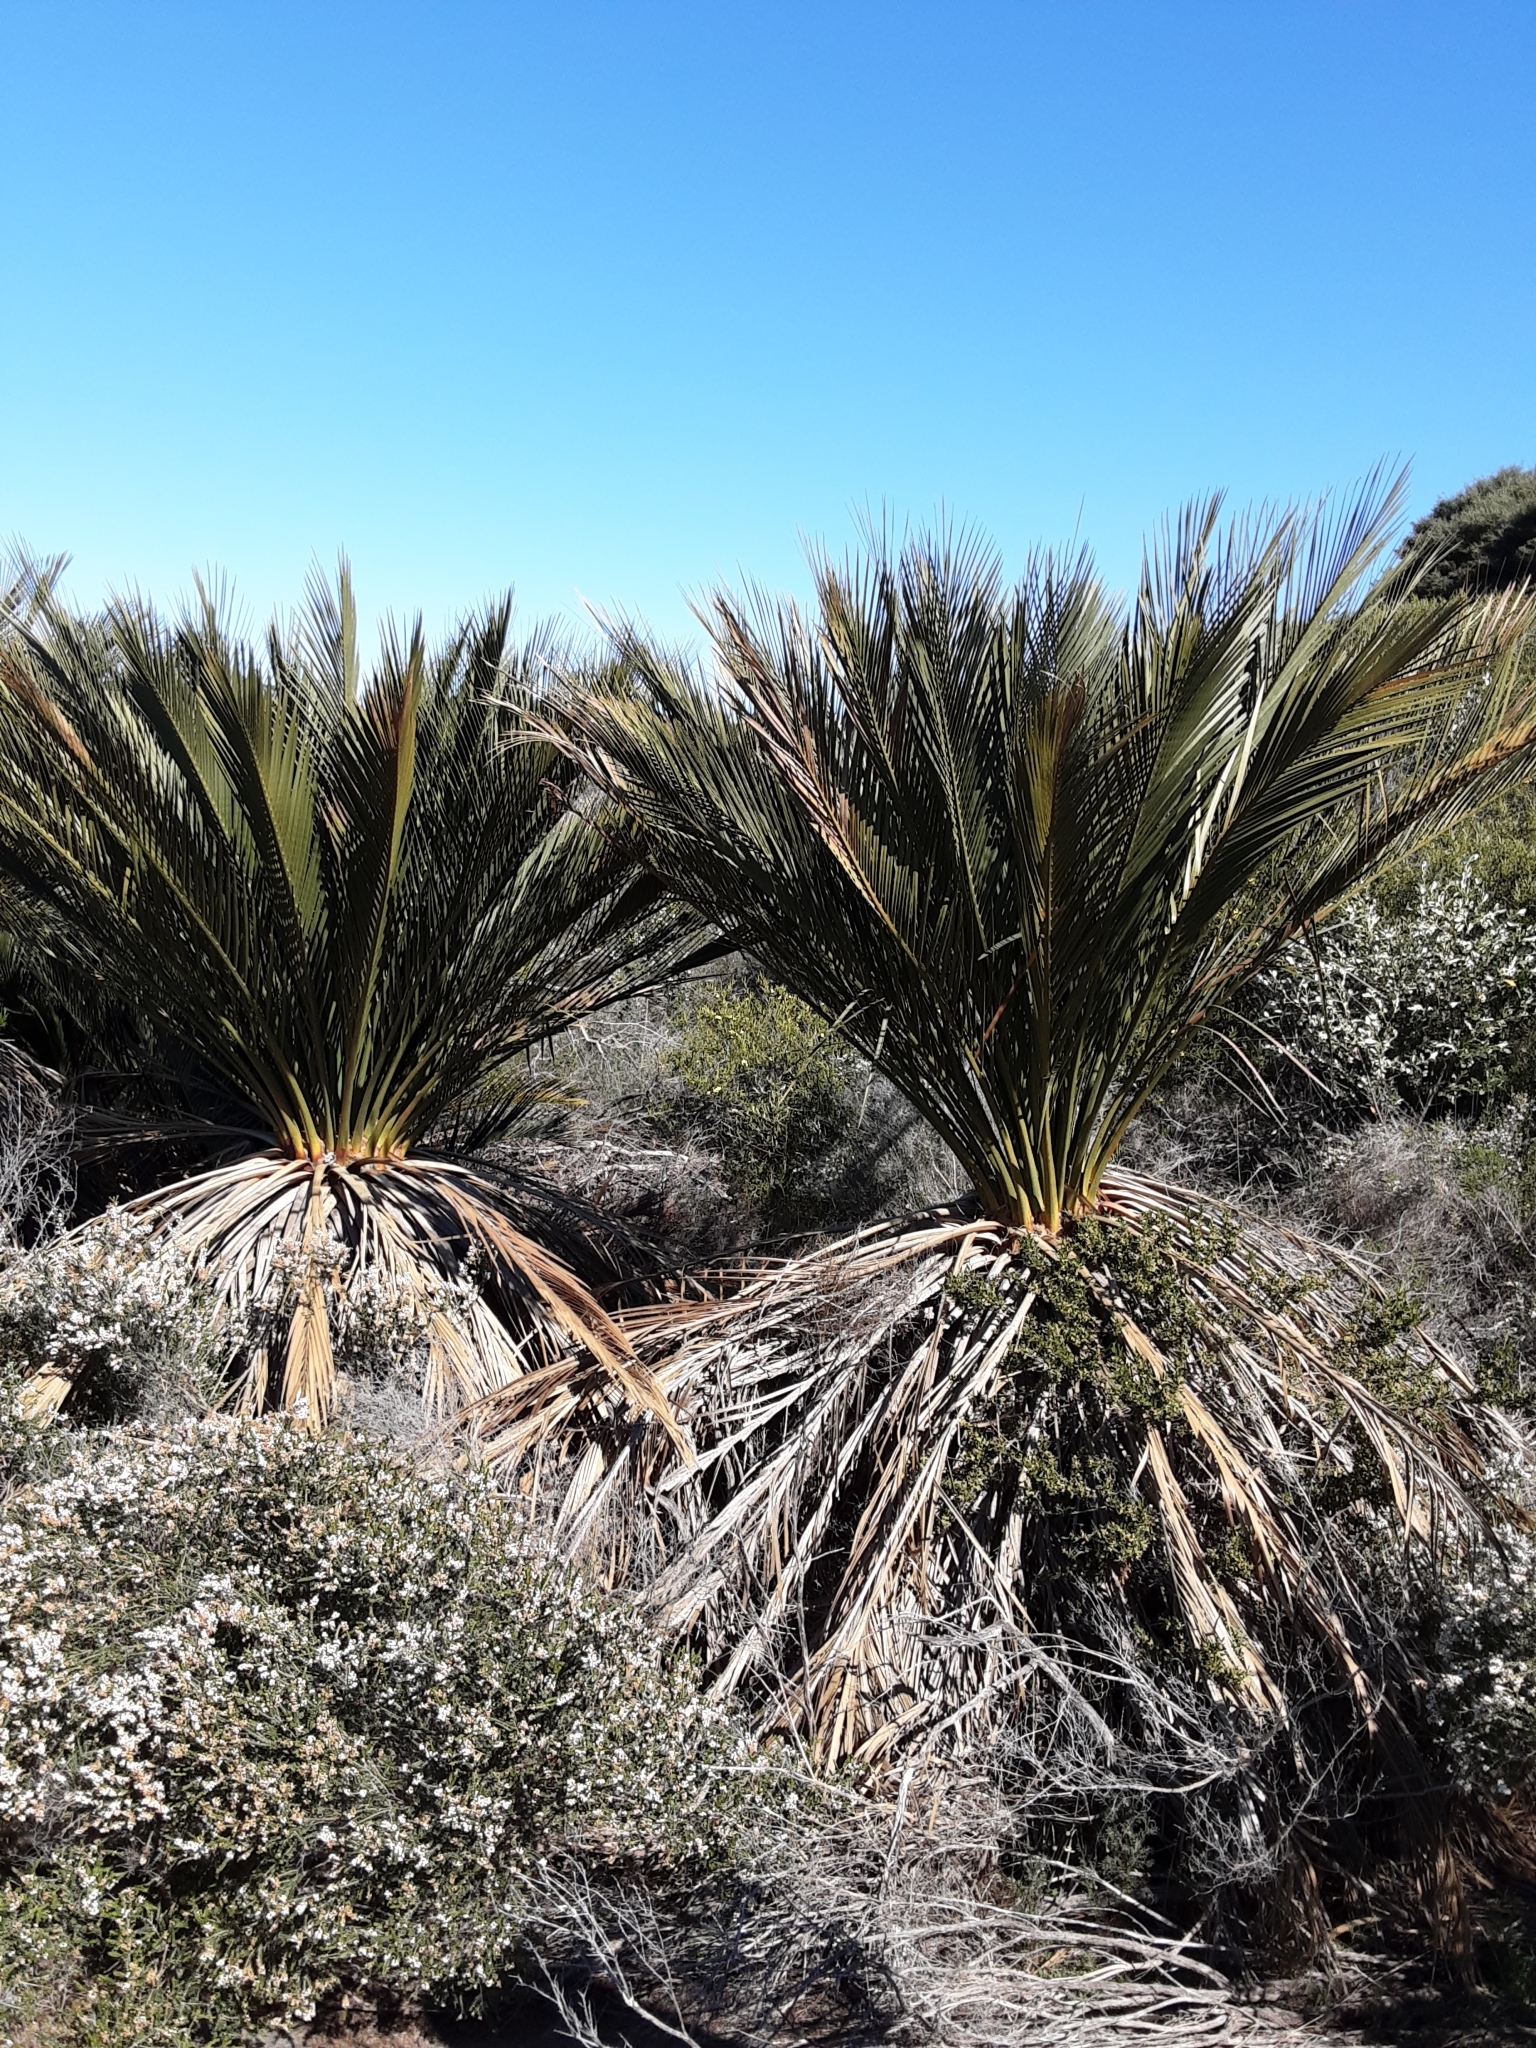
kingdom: Plantae
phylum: Tracheophyta
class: Cycadopsida
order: Cycadales
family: Zamiaceae
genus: Macrozamia
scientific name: Macrozamia dyeri
